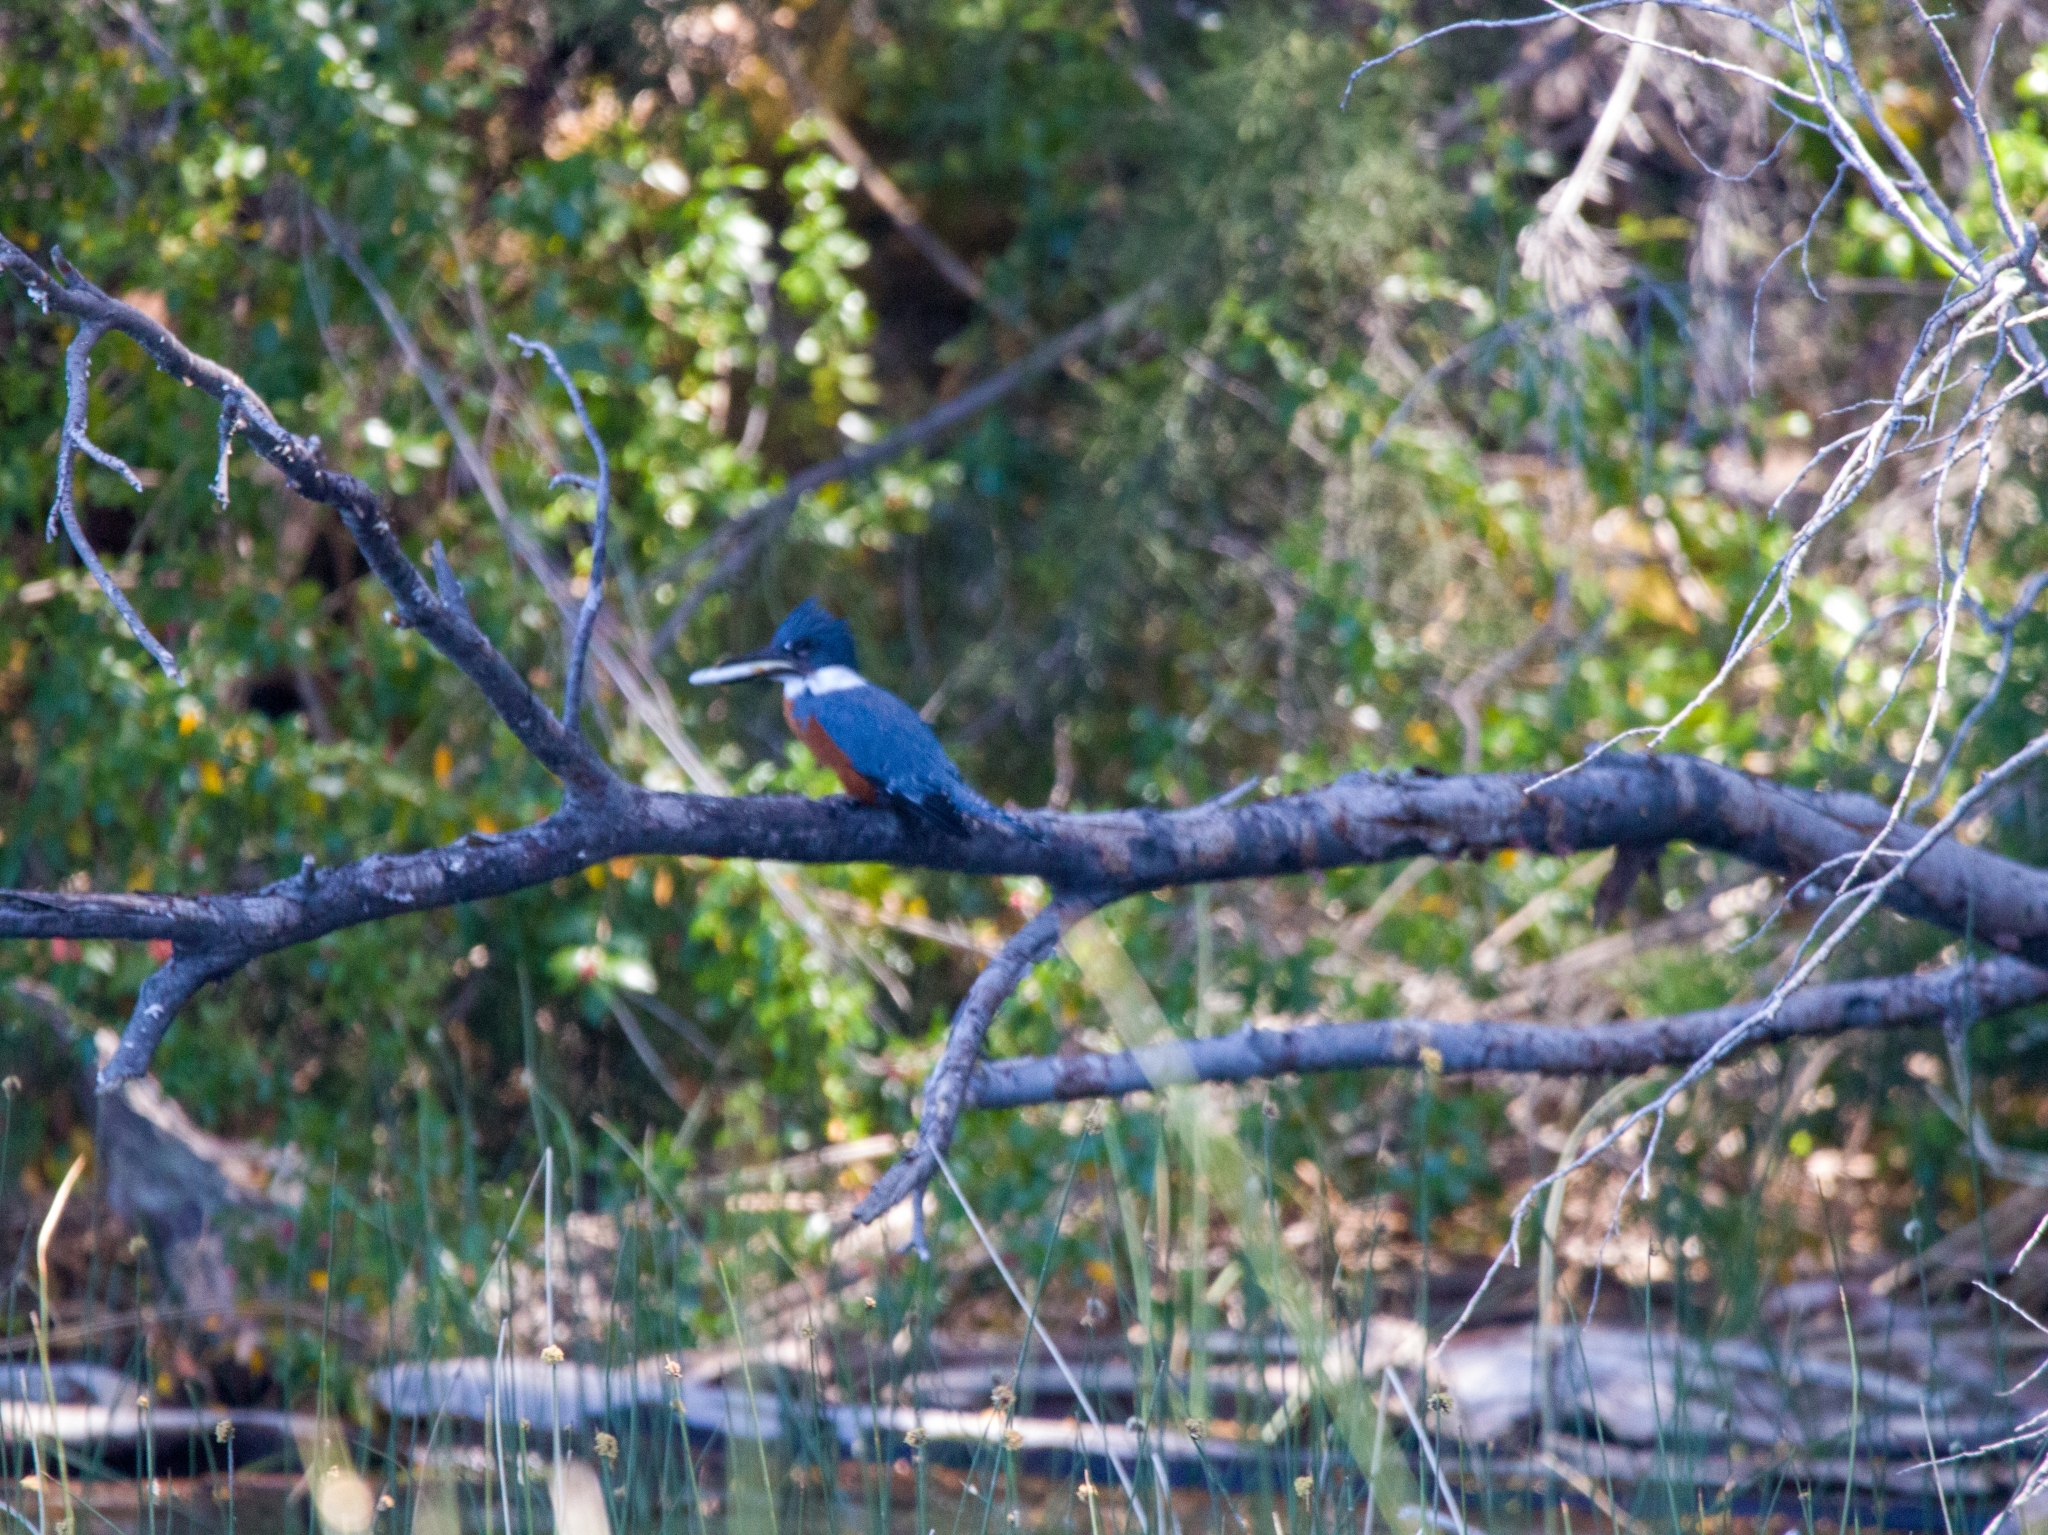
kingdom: Animalia
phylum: Chordata
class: Aves
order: Coraciiformes
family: Alcedinidae
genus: Megaceryle
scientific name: Megaceryle torquata
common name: Ringed kingfisher
